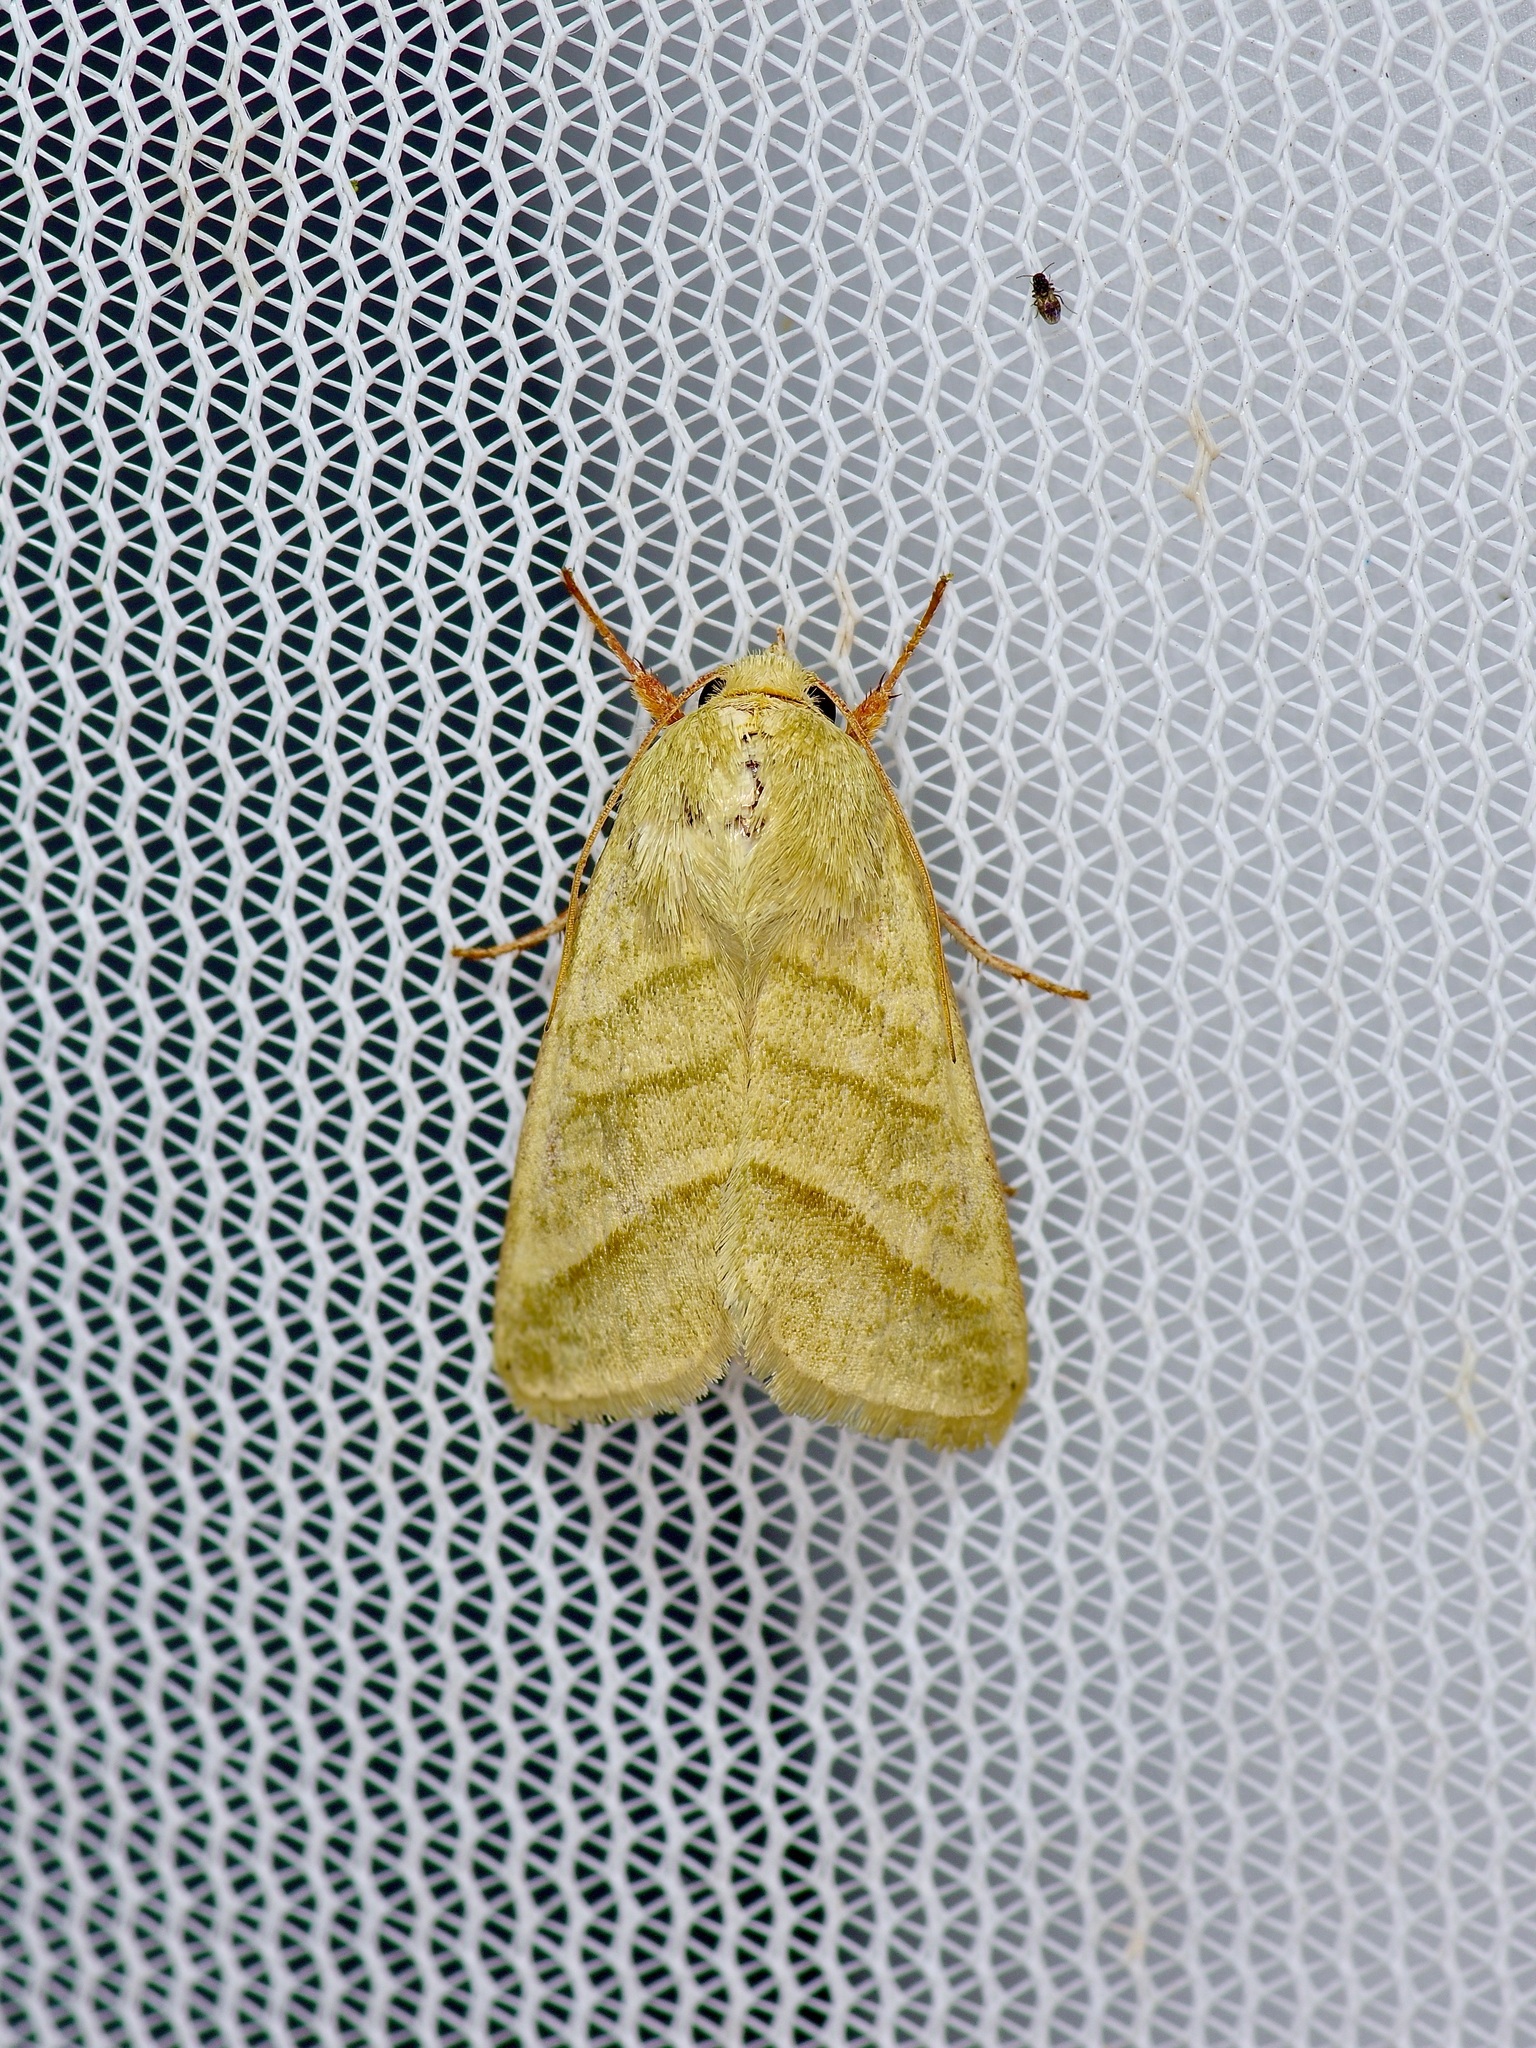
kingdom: Animalia
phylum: Arthropoda
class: Insecta
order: Lepidoptera
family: Noctuidae
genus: Chloridea
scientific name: Chloridea virescens
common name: Tobacco budworm
